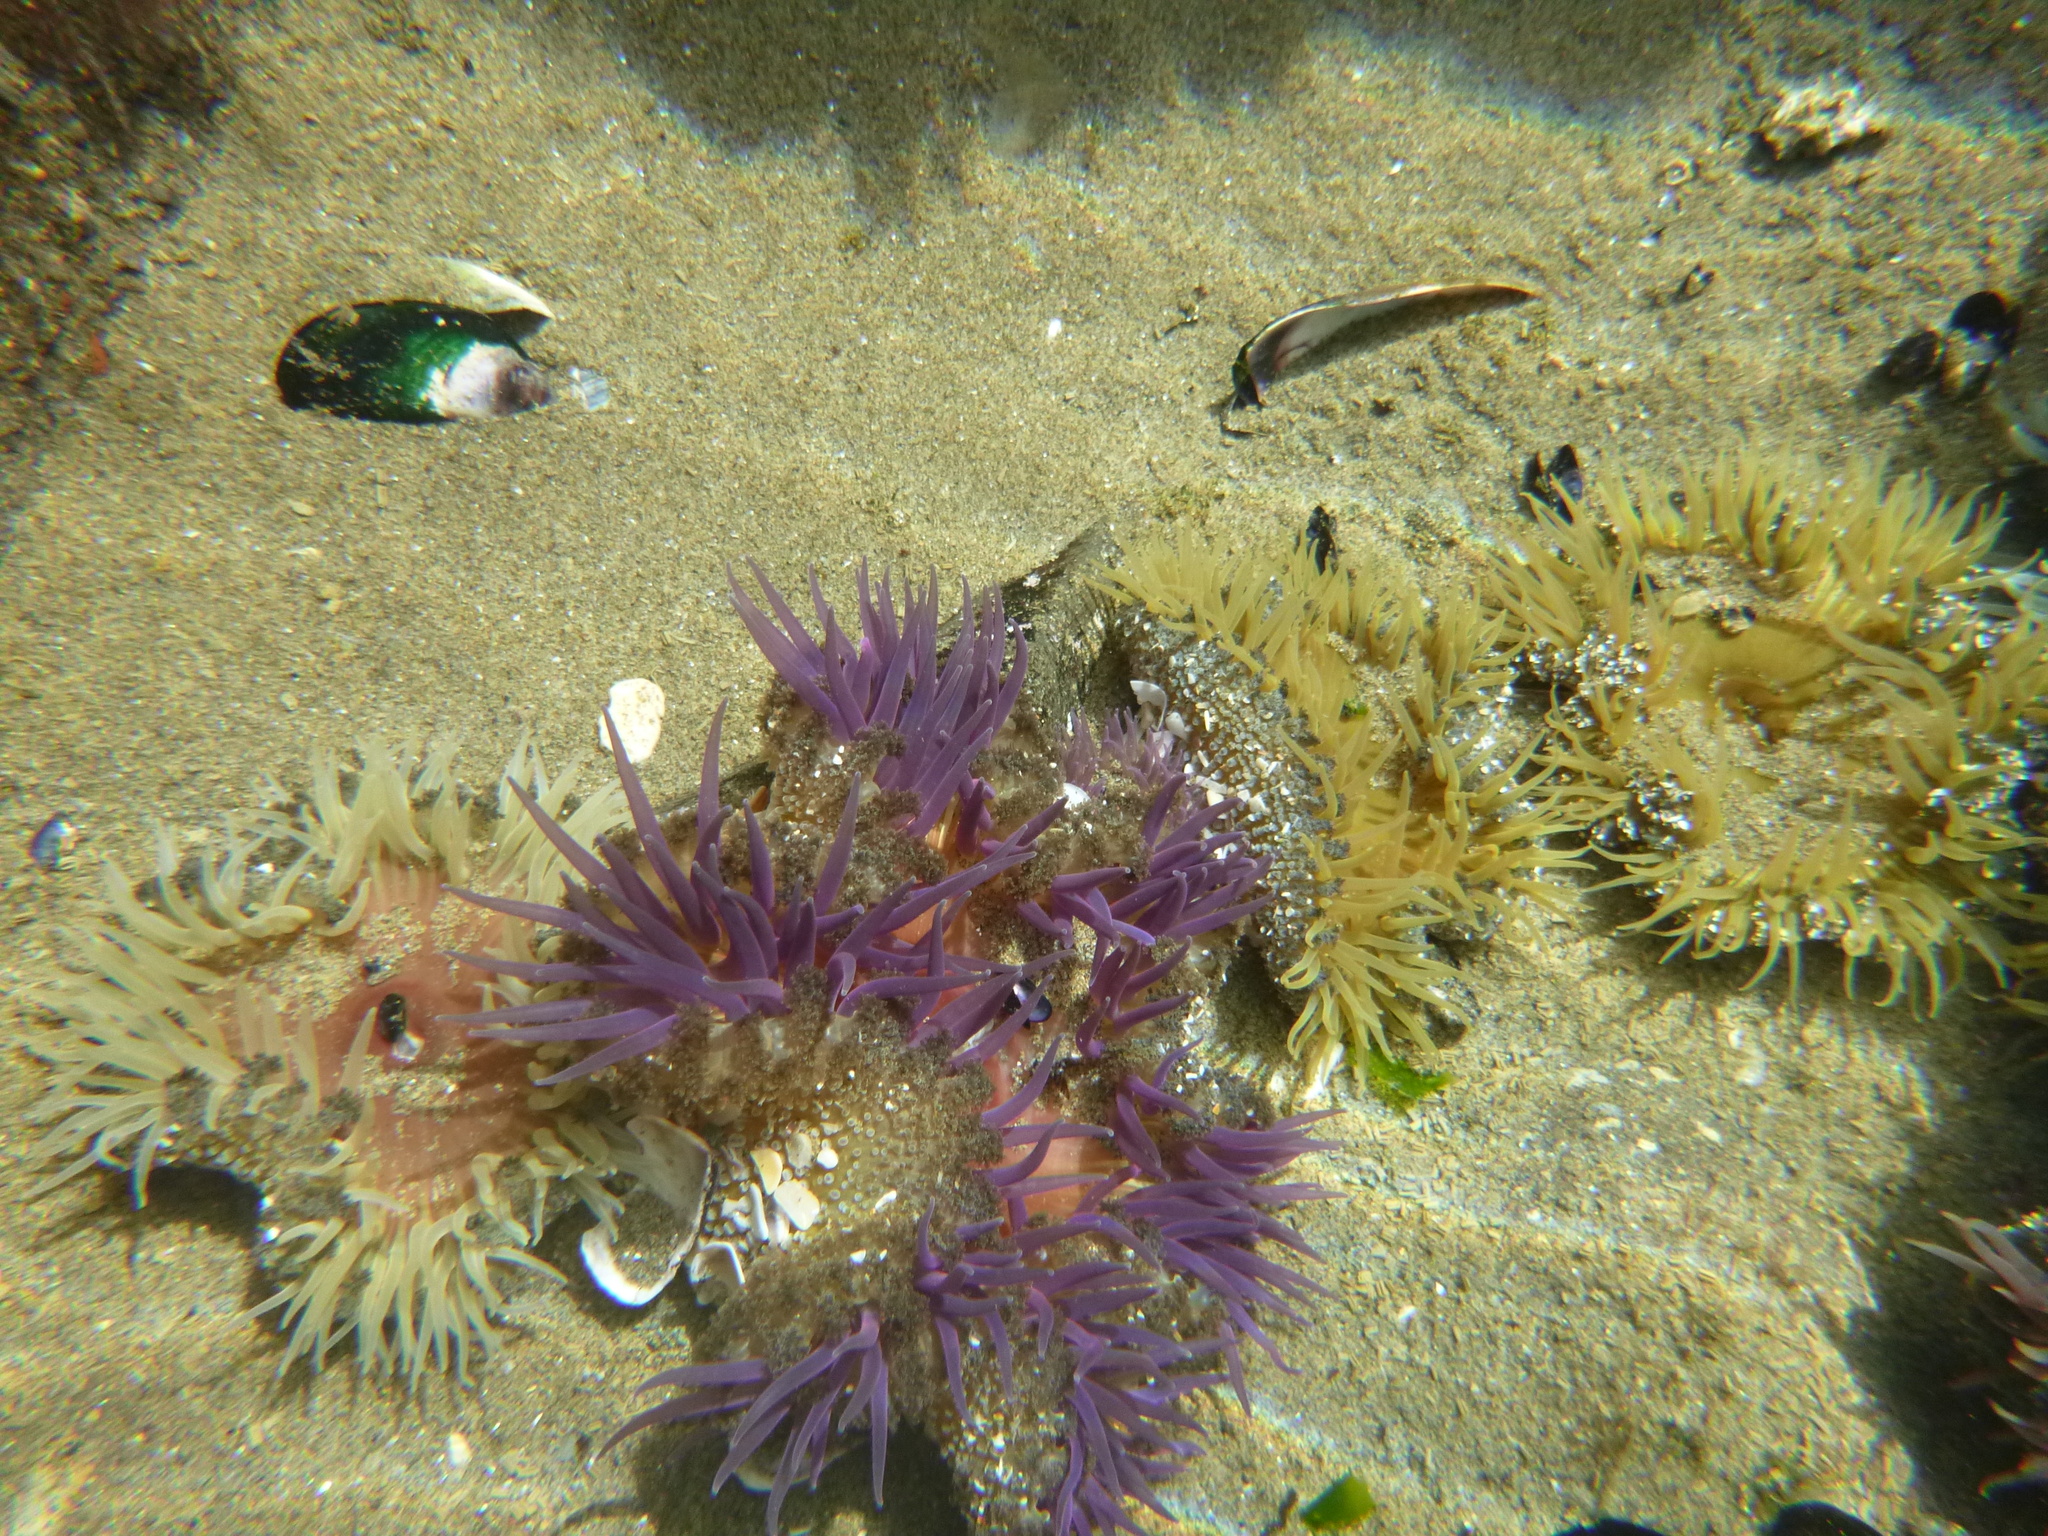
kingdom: Animalia
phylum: Cnidaria
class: Anthozoa
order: Actiniaria
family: Actiniidae
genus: Oulactis
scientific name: Oulactis magna
